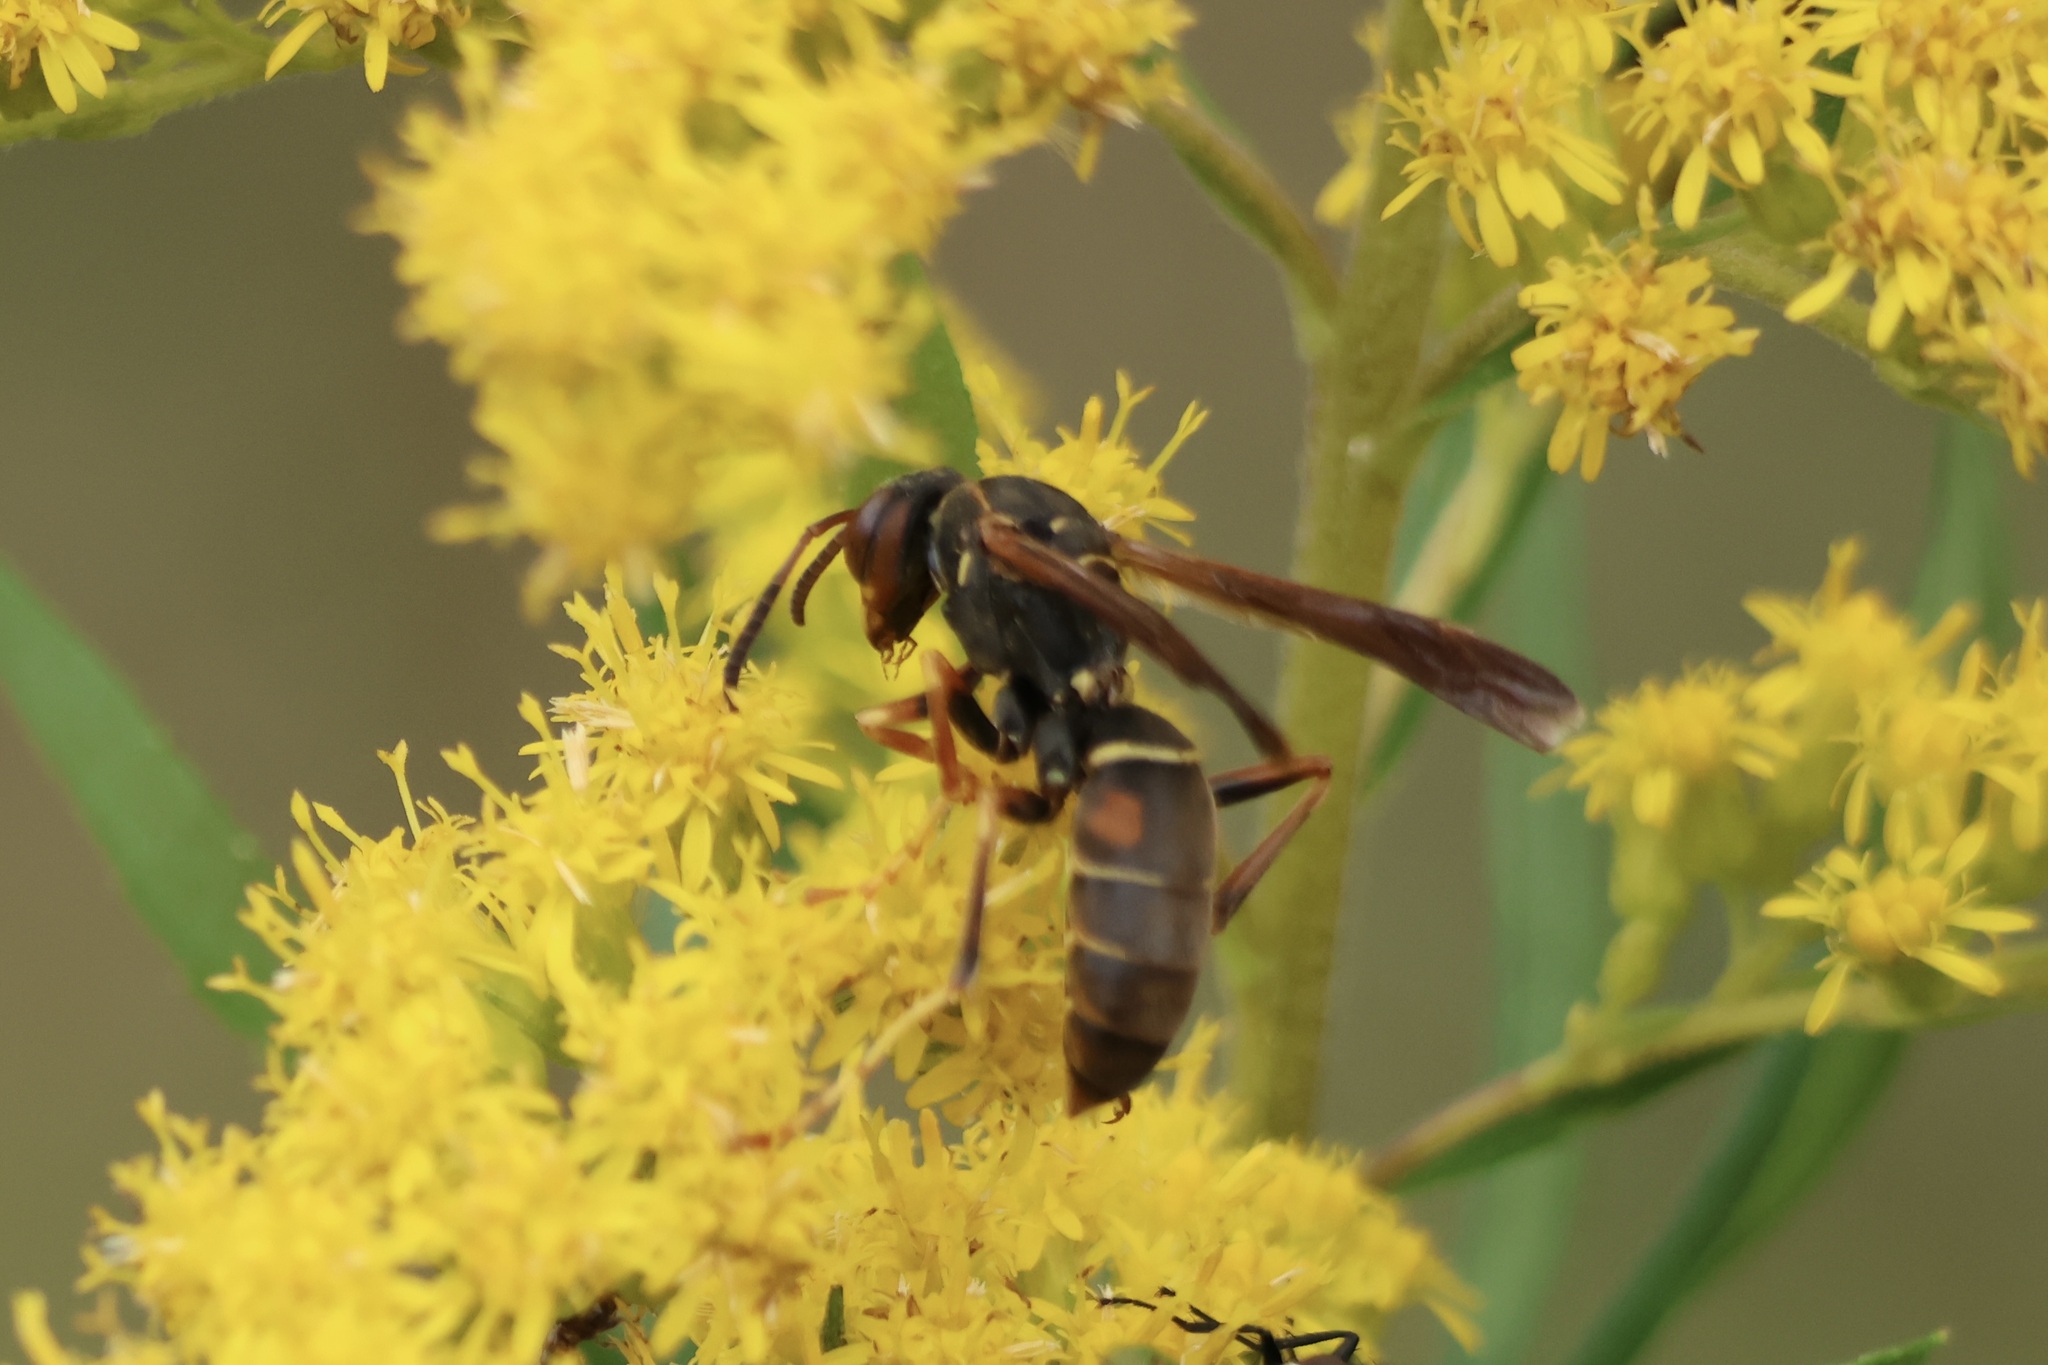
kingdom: Animalia
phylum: Arthropoda
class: Insecta
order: Hymenoptera
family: Eumenidae
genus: Polistes
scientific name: Polistes fuscatus
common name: Dark paper wasp
